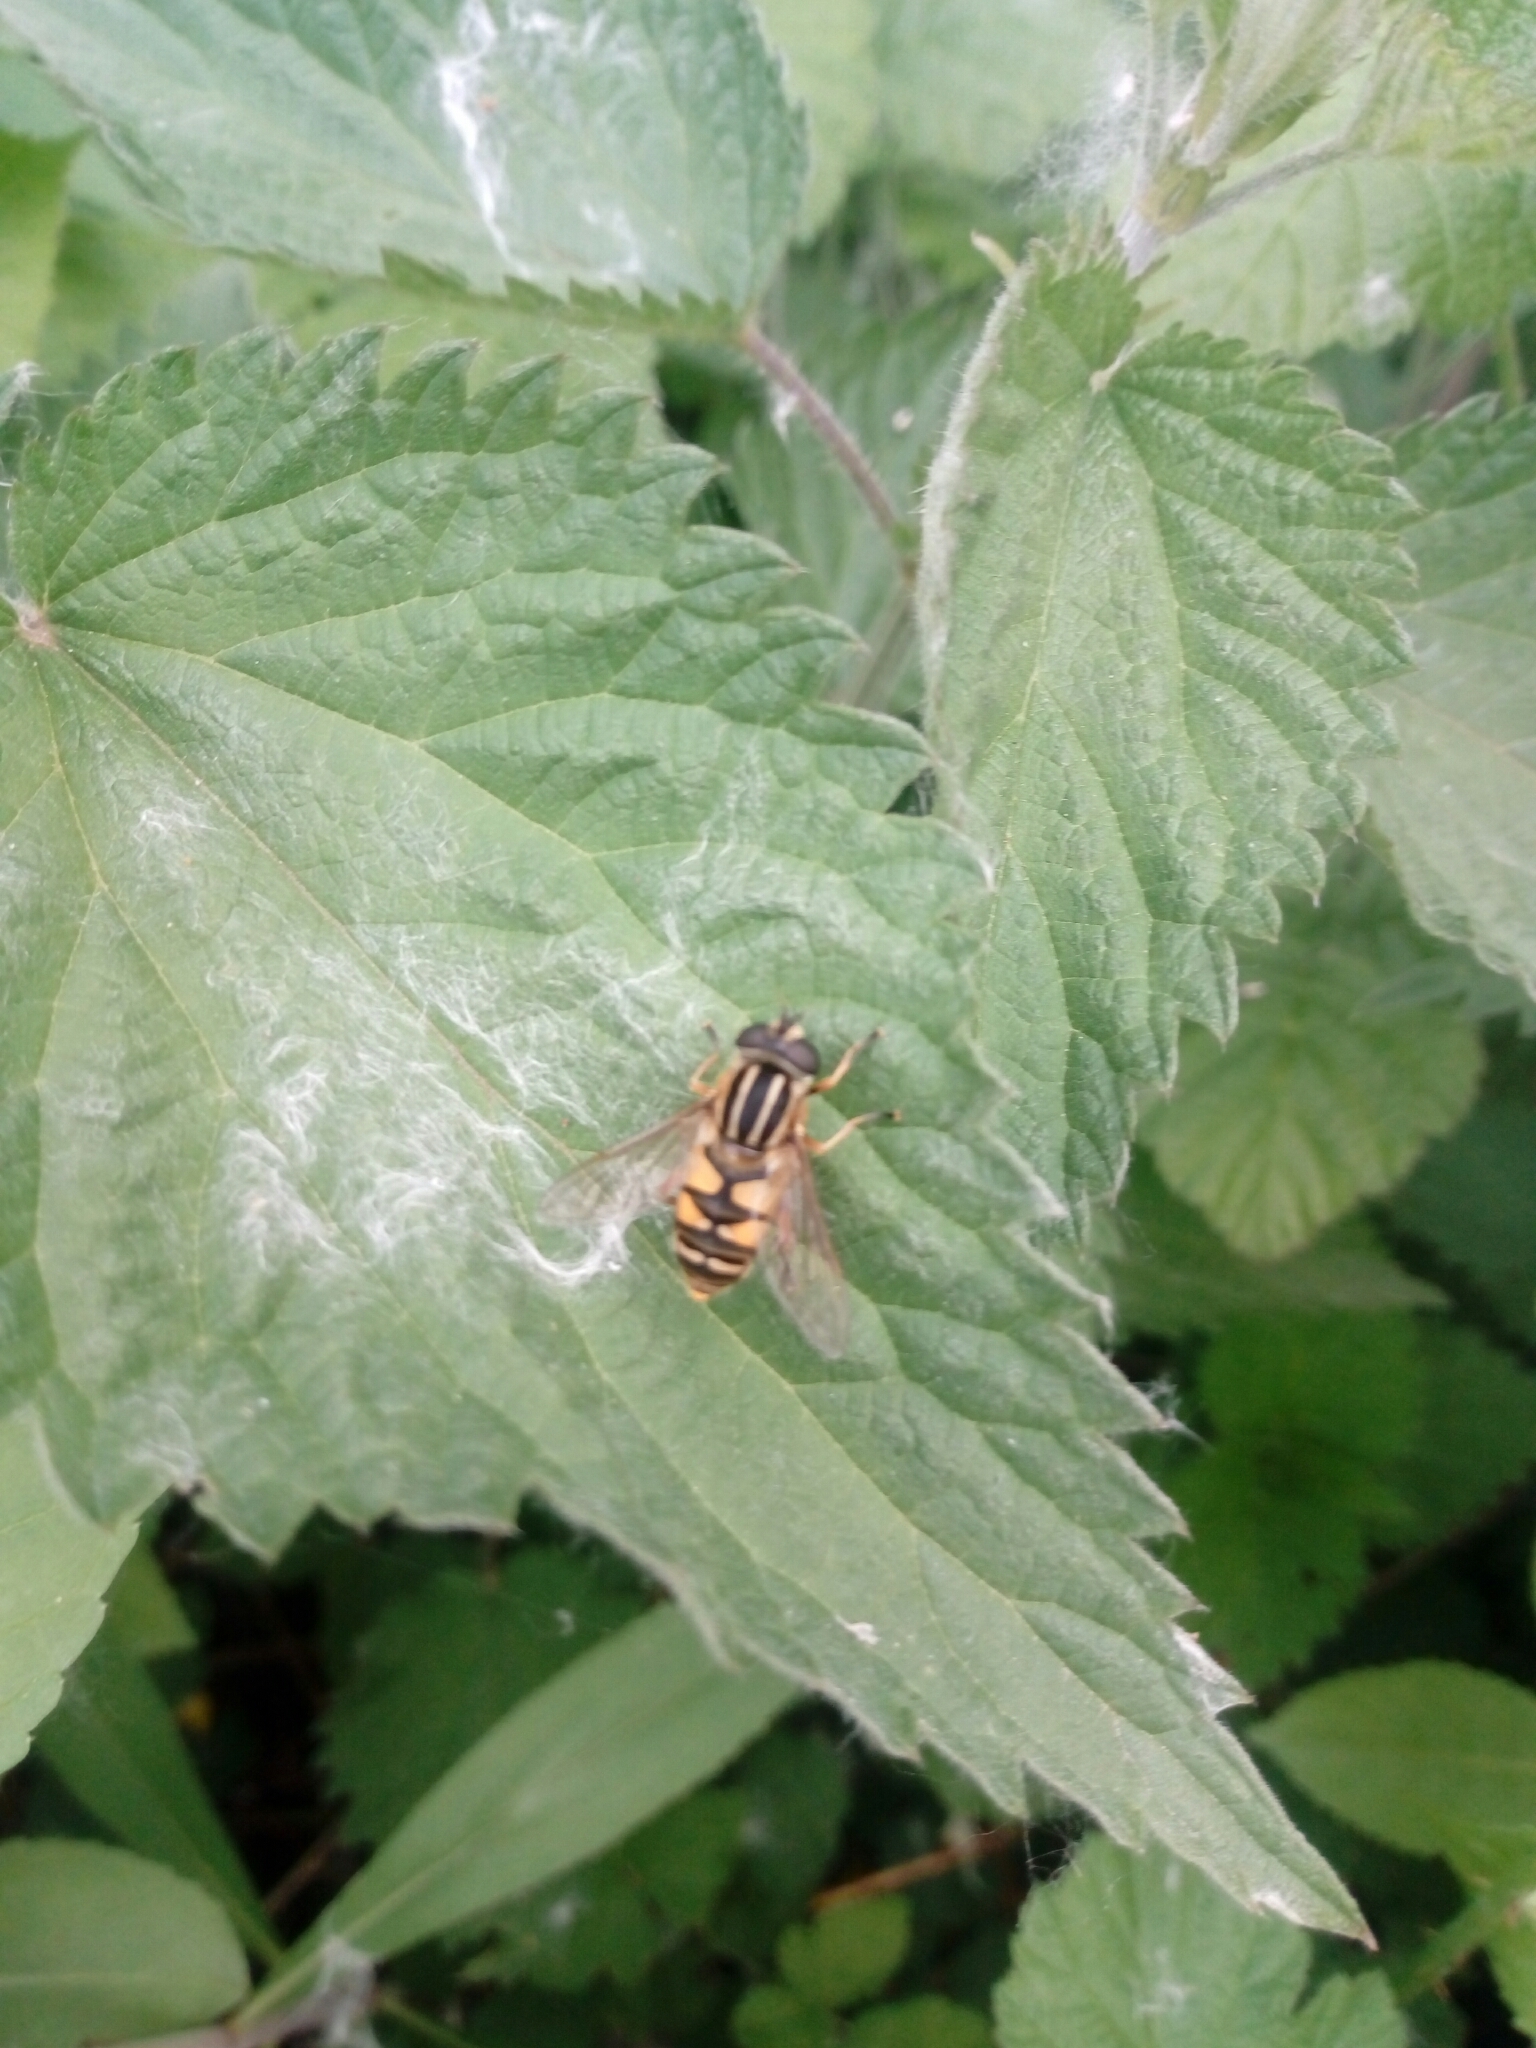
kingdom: Animalia
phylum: Arthropoda
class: Insecta
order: Diptera
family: Syrphidae
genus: Helophilus
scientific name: Helophilus pendulus
